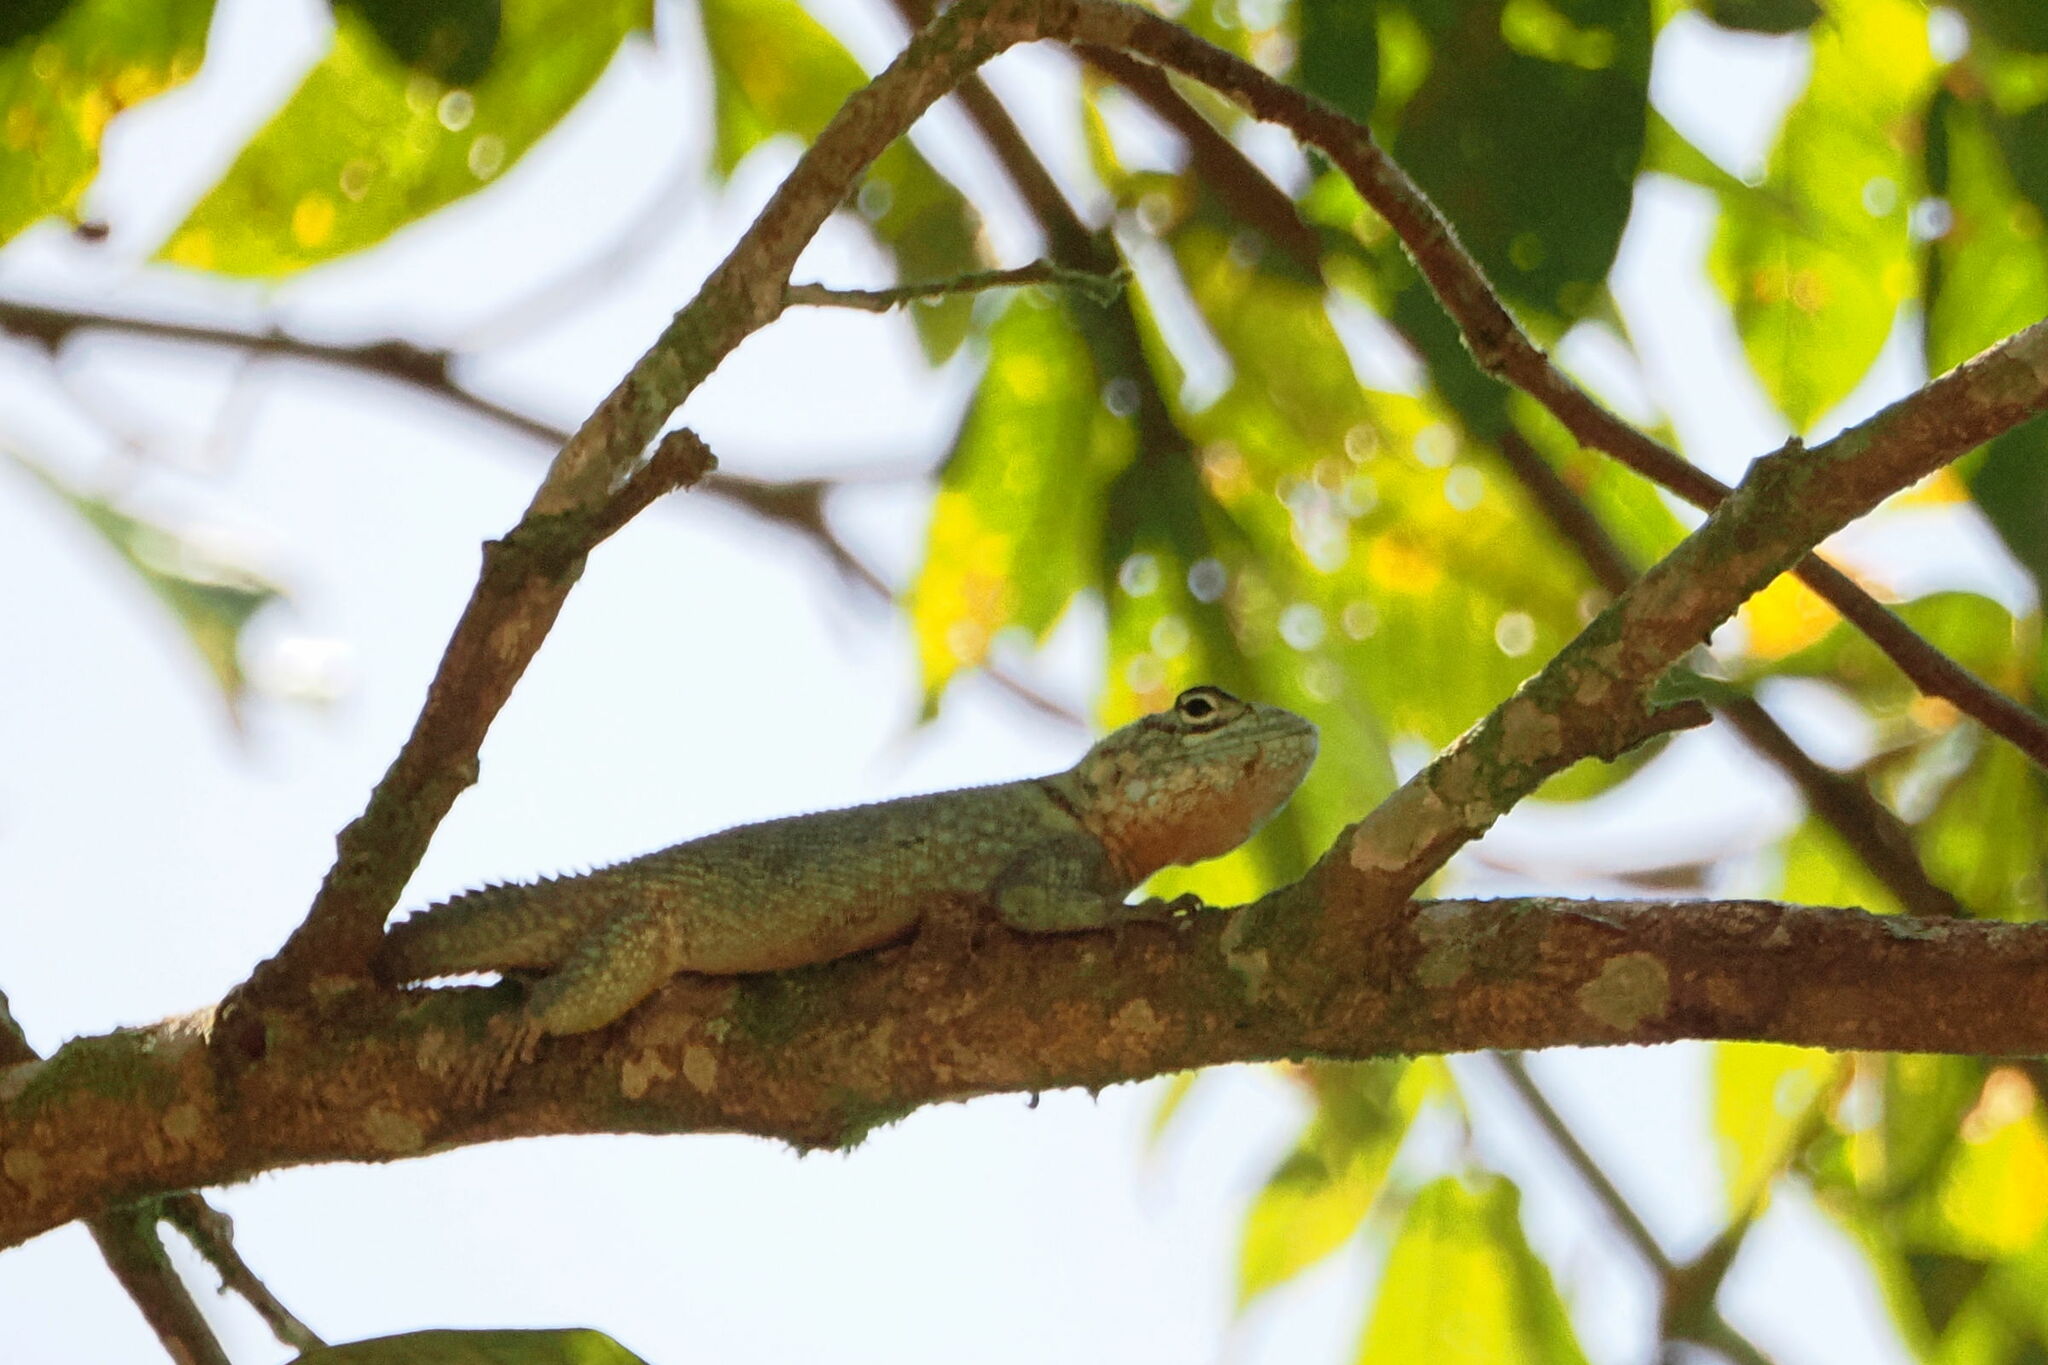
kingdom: Animalia
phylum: Chordata
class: Squamata
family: Tropiduridae
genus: Strobilurus
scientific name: Strobilurus torquatus
